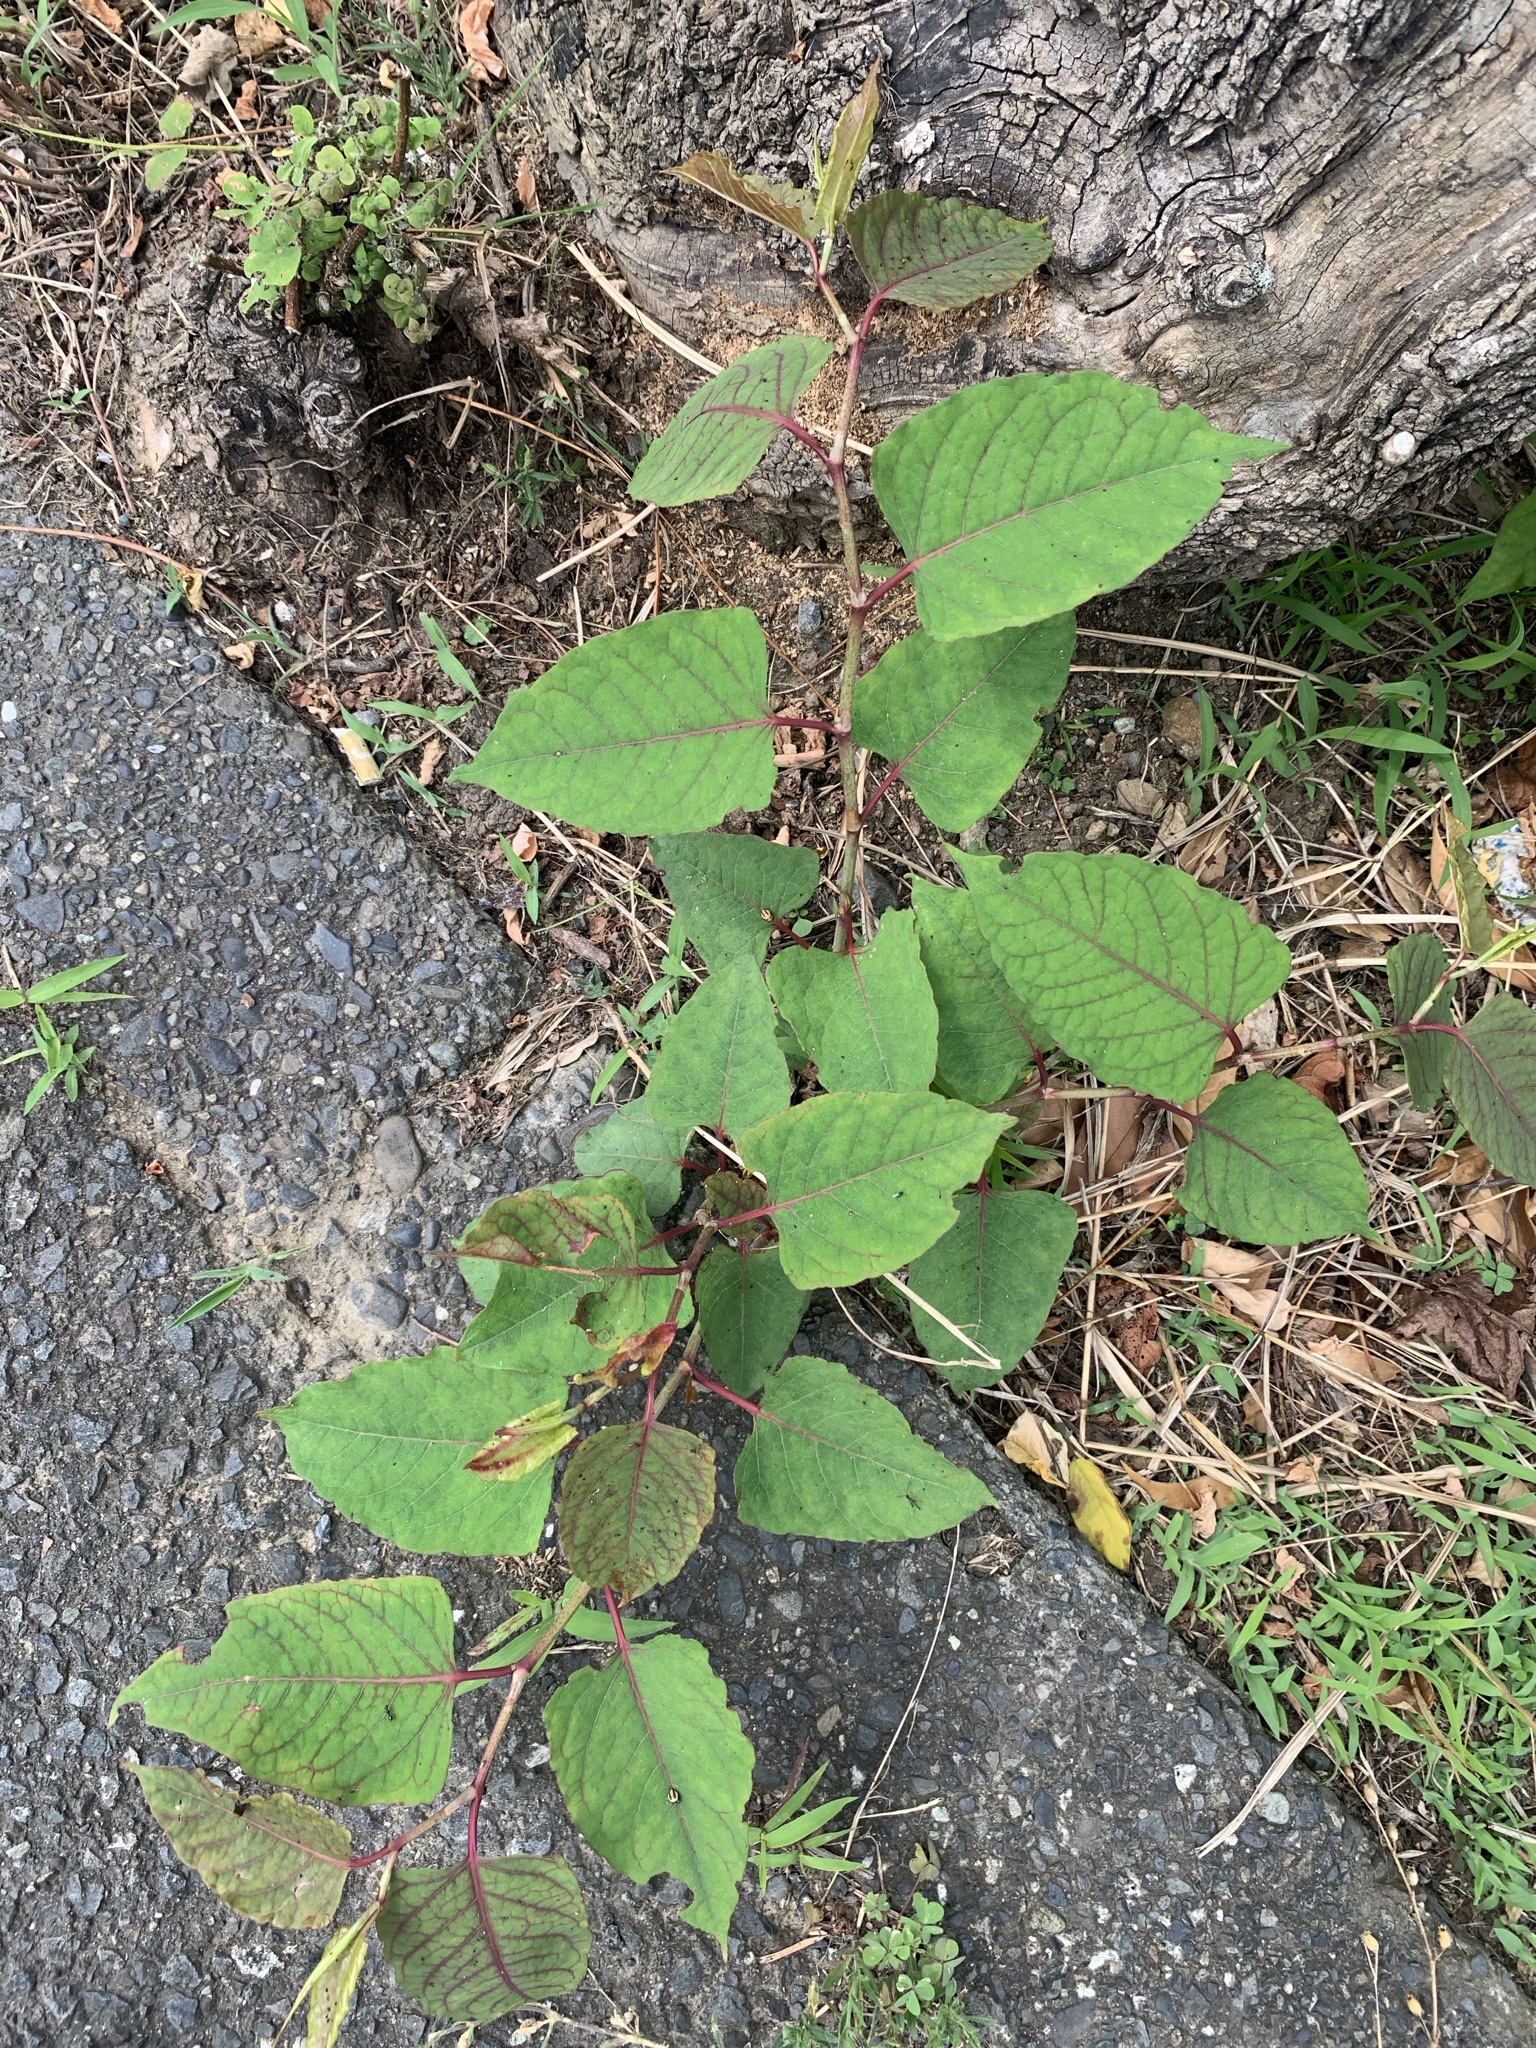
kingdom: Plantae
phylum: Tracheophyta
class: Magnoliopsida
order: Caryophyllales
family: Polygonaceae
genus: Reynoutria
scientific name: Reynoutria japonica
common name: Japanese knotweed
